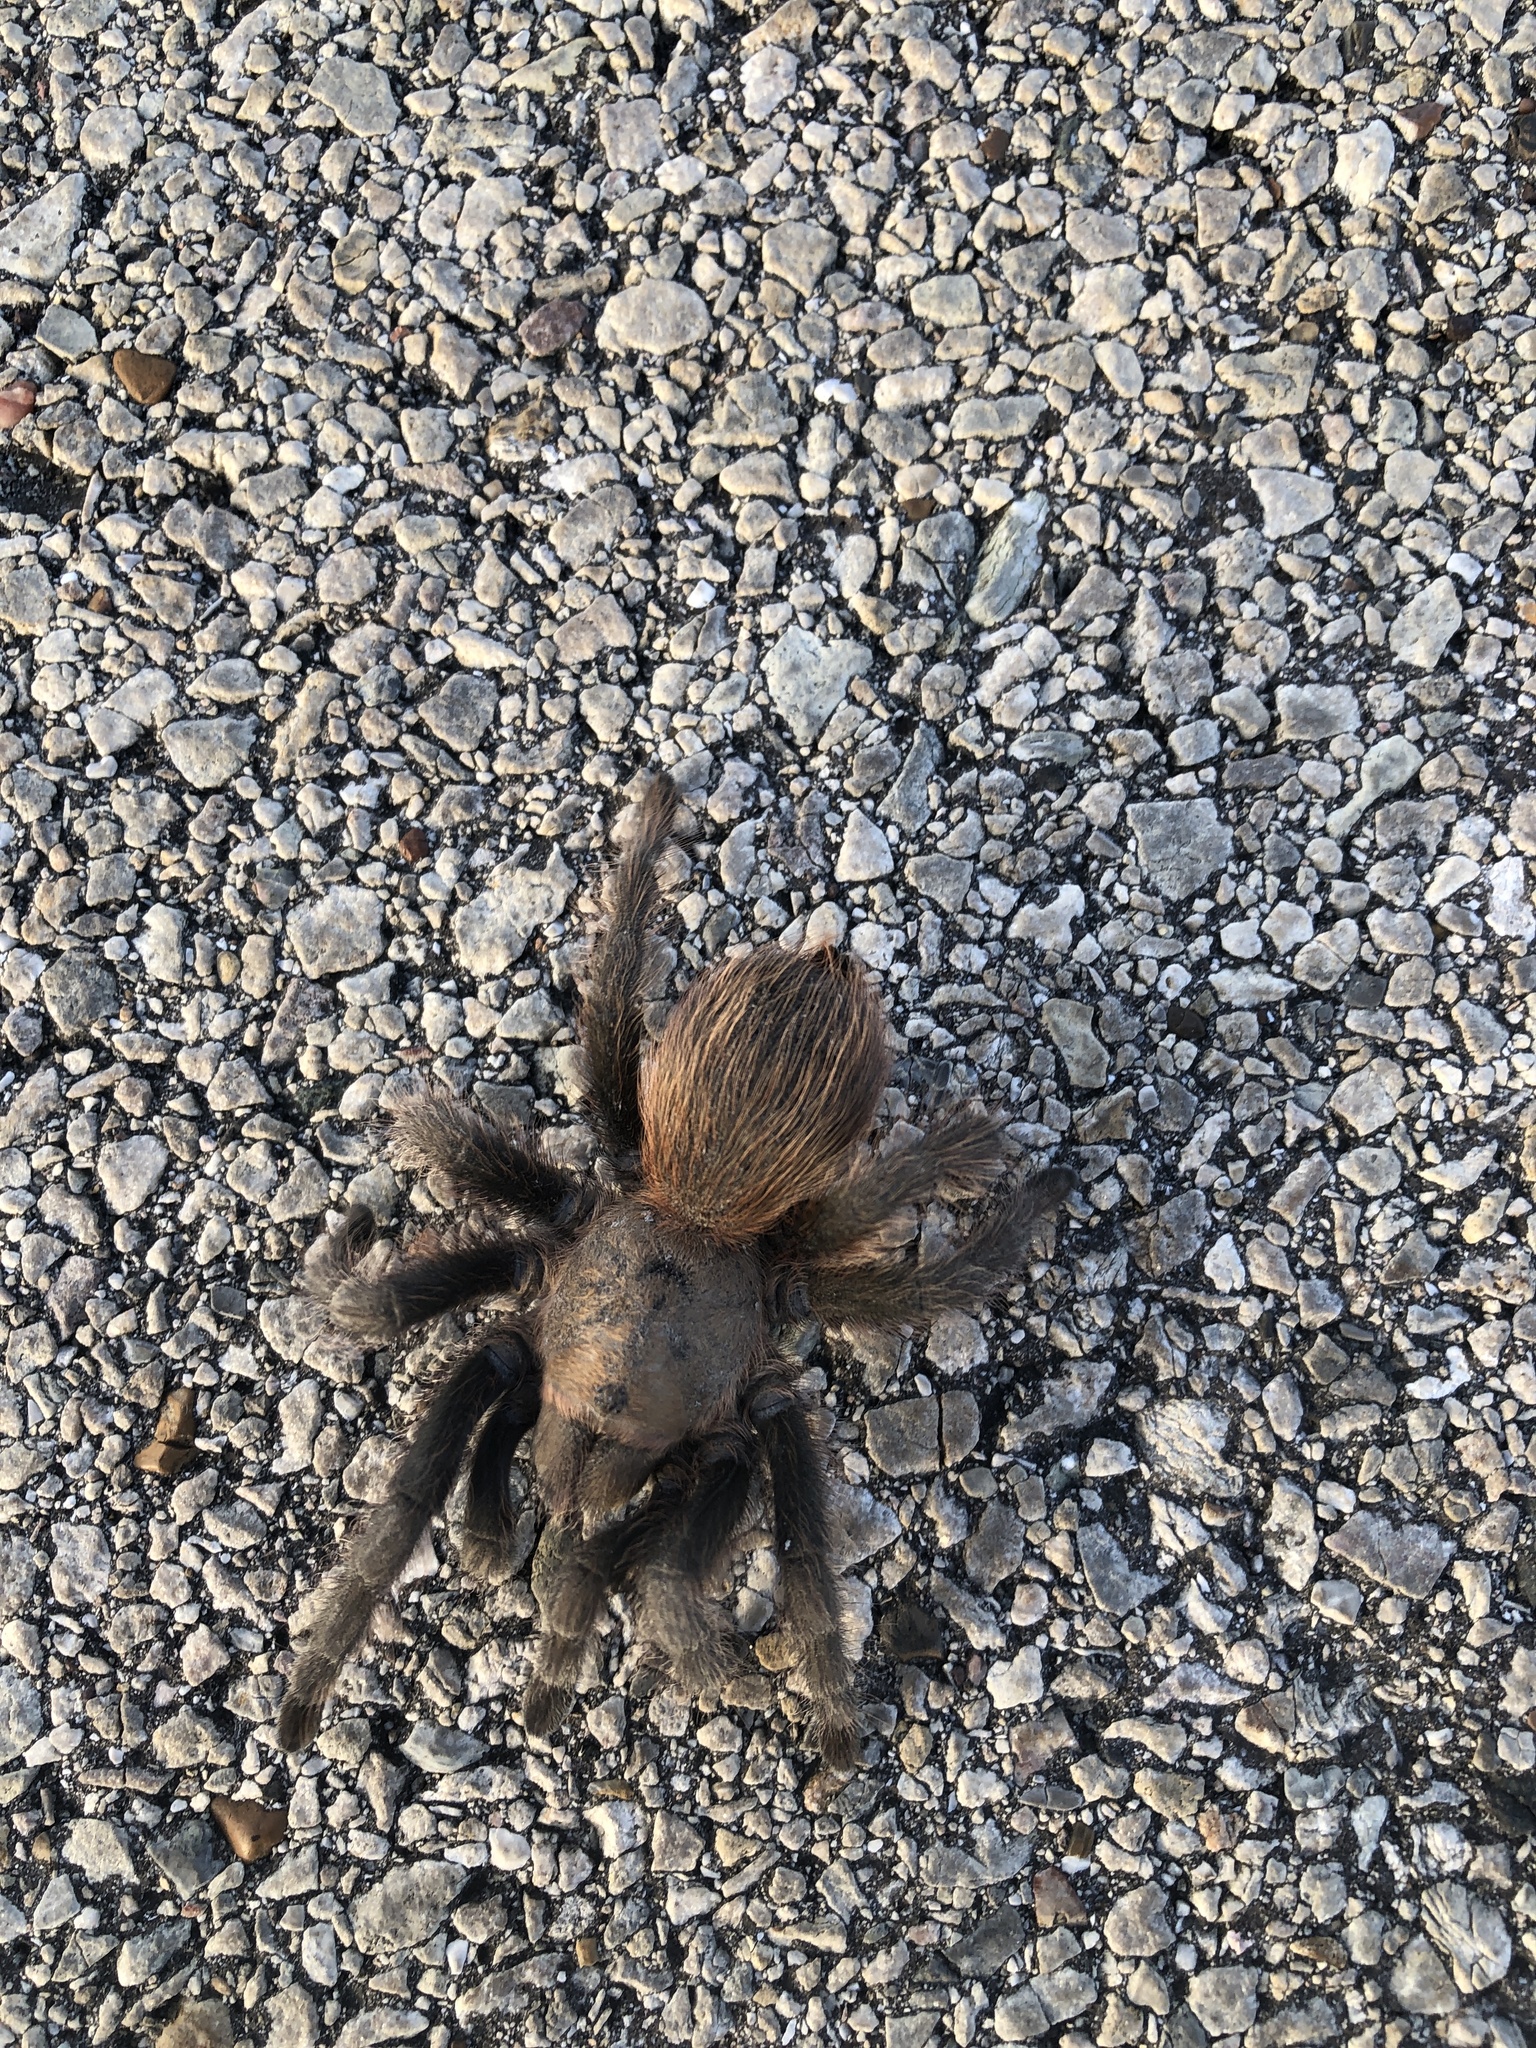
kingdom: Animalia
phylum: Arthropoda
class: Arachnida
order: Araneae
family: Theraphosidae
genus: Aphonopelma
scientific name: Aphonopelma hentzi
